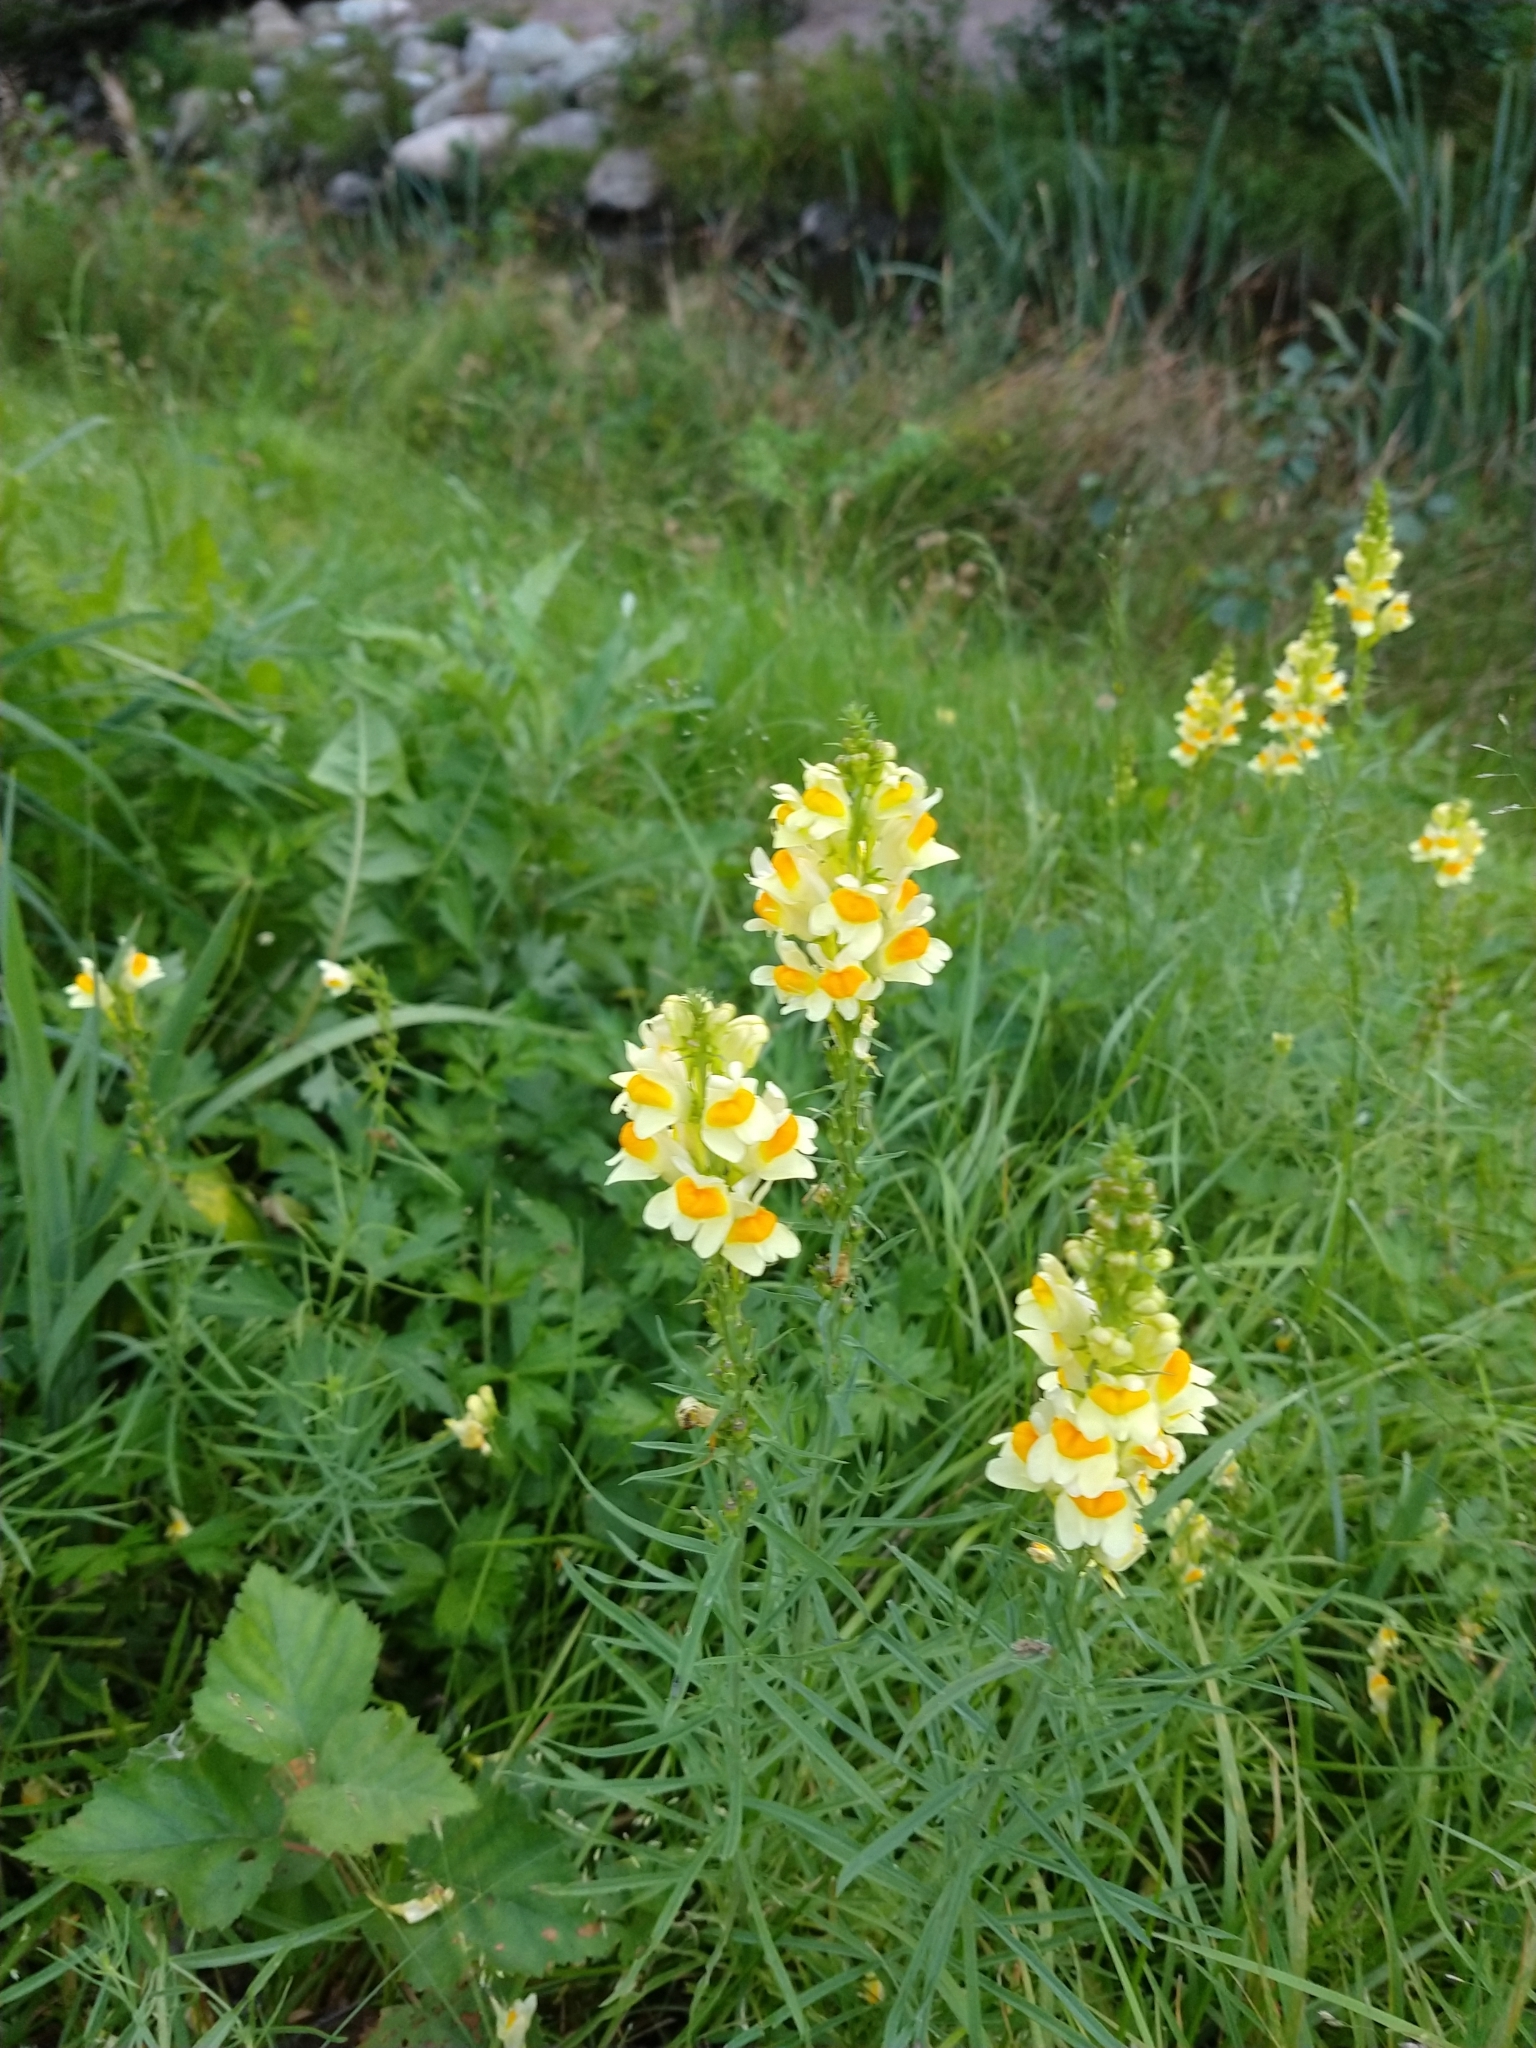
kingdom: Plantae
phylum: Tracheophyta
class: Magnoliopsida
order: Lamiales
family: Plantaginaceae
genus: Linaria
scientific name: Linaria vulgaris
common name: Butter and eggs
